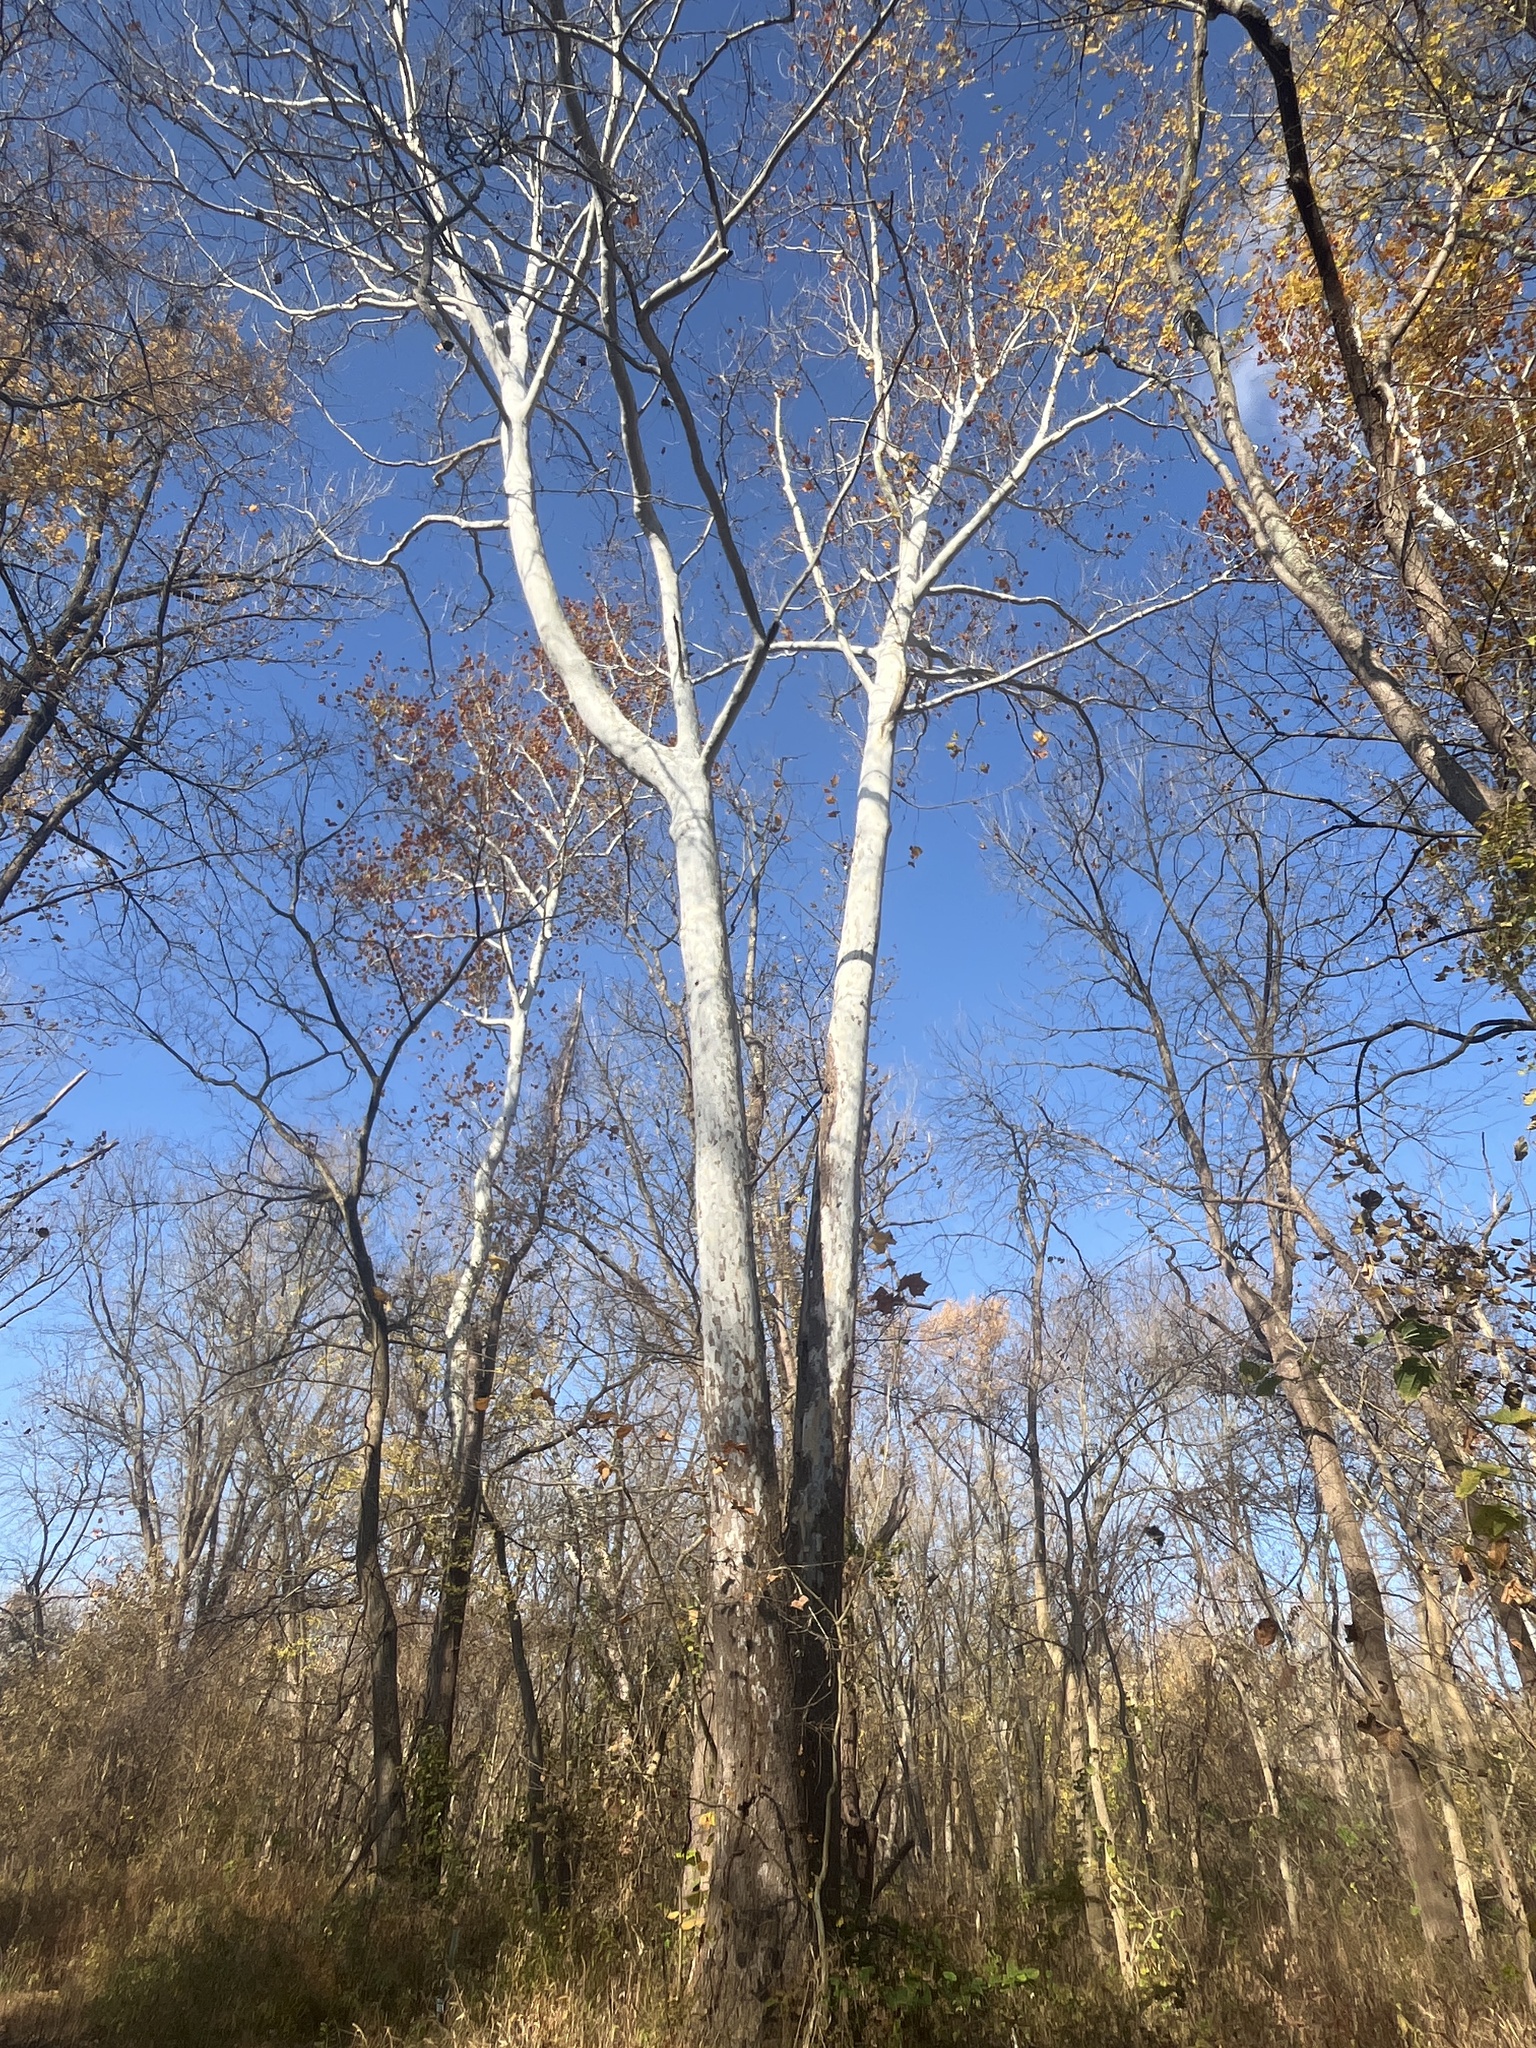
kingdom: Plantae
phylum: Tracheophyta
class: Magnoliopsida
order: Proteales
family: Platanaceae
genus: Platanus
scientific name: Platanus occidentalis
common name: American sycamore
